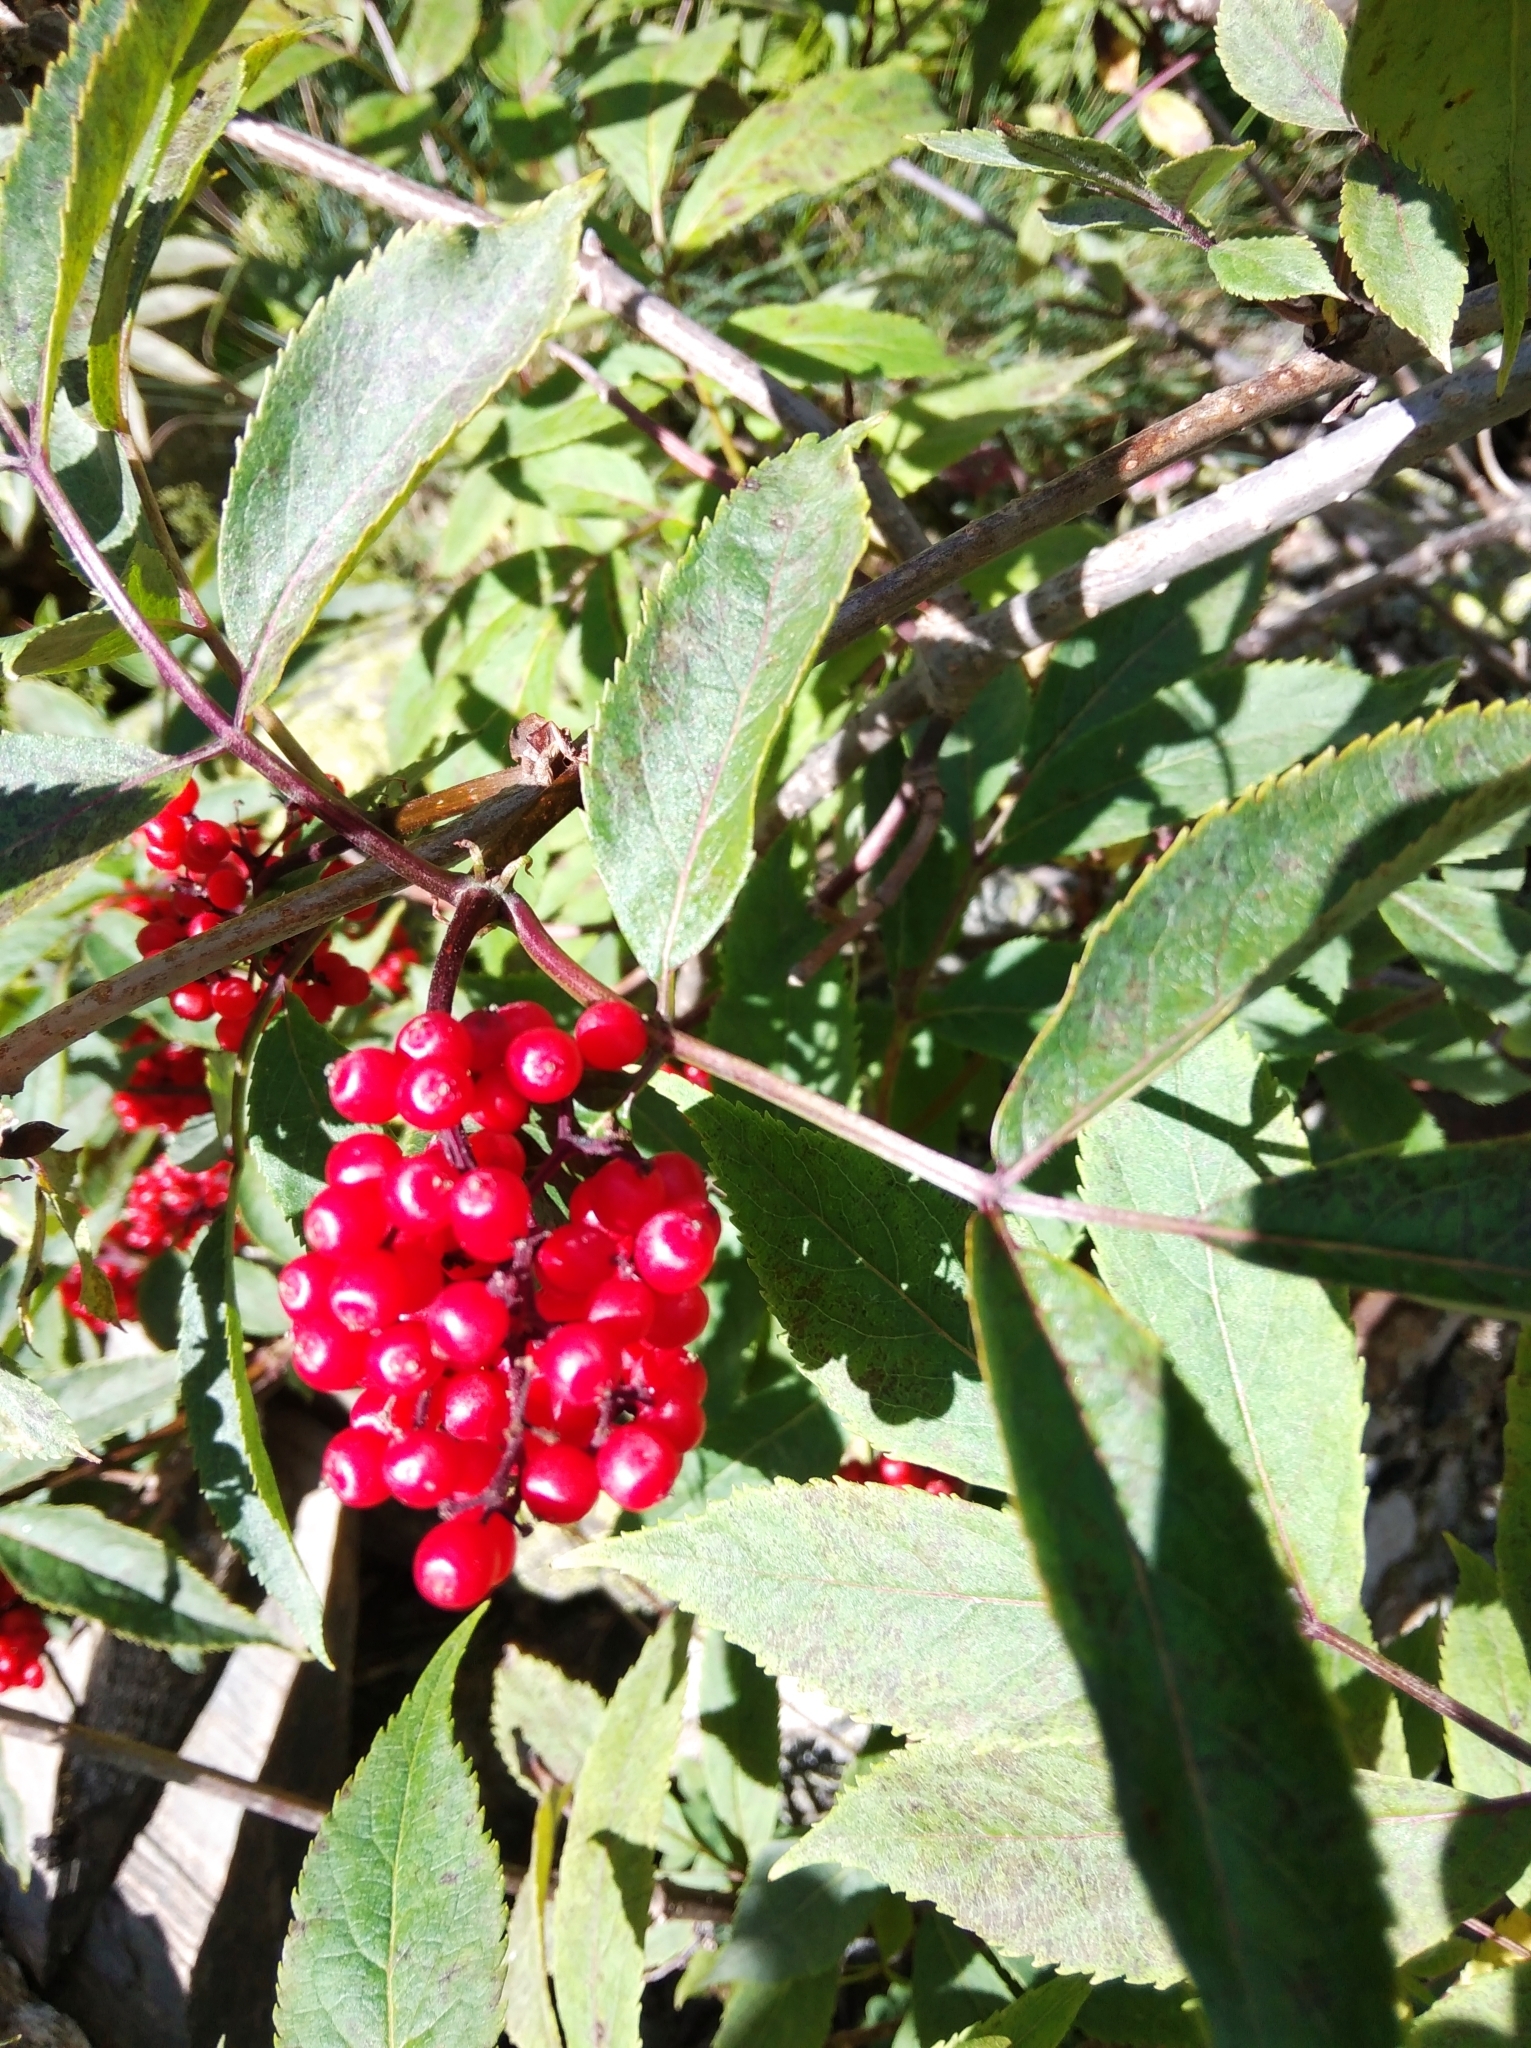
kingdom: Plantae
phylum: Tracheophyta
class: Magnoliopsida
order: Dipsacales
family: Viburnaceae
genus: Sambucus
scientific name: Sambucus racemosa
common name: Red-berried elder
